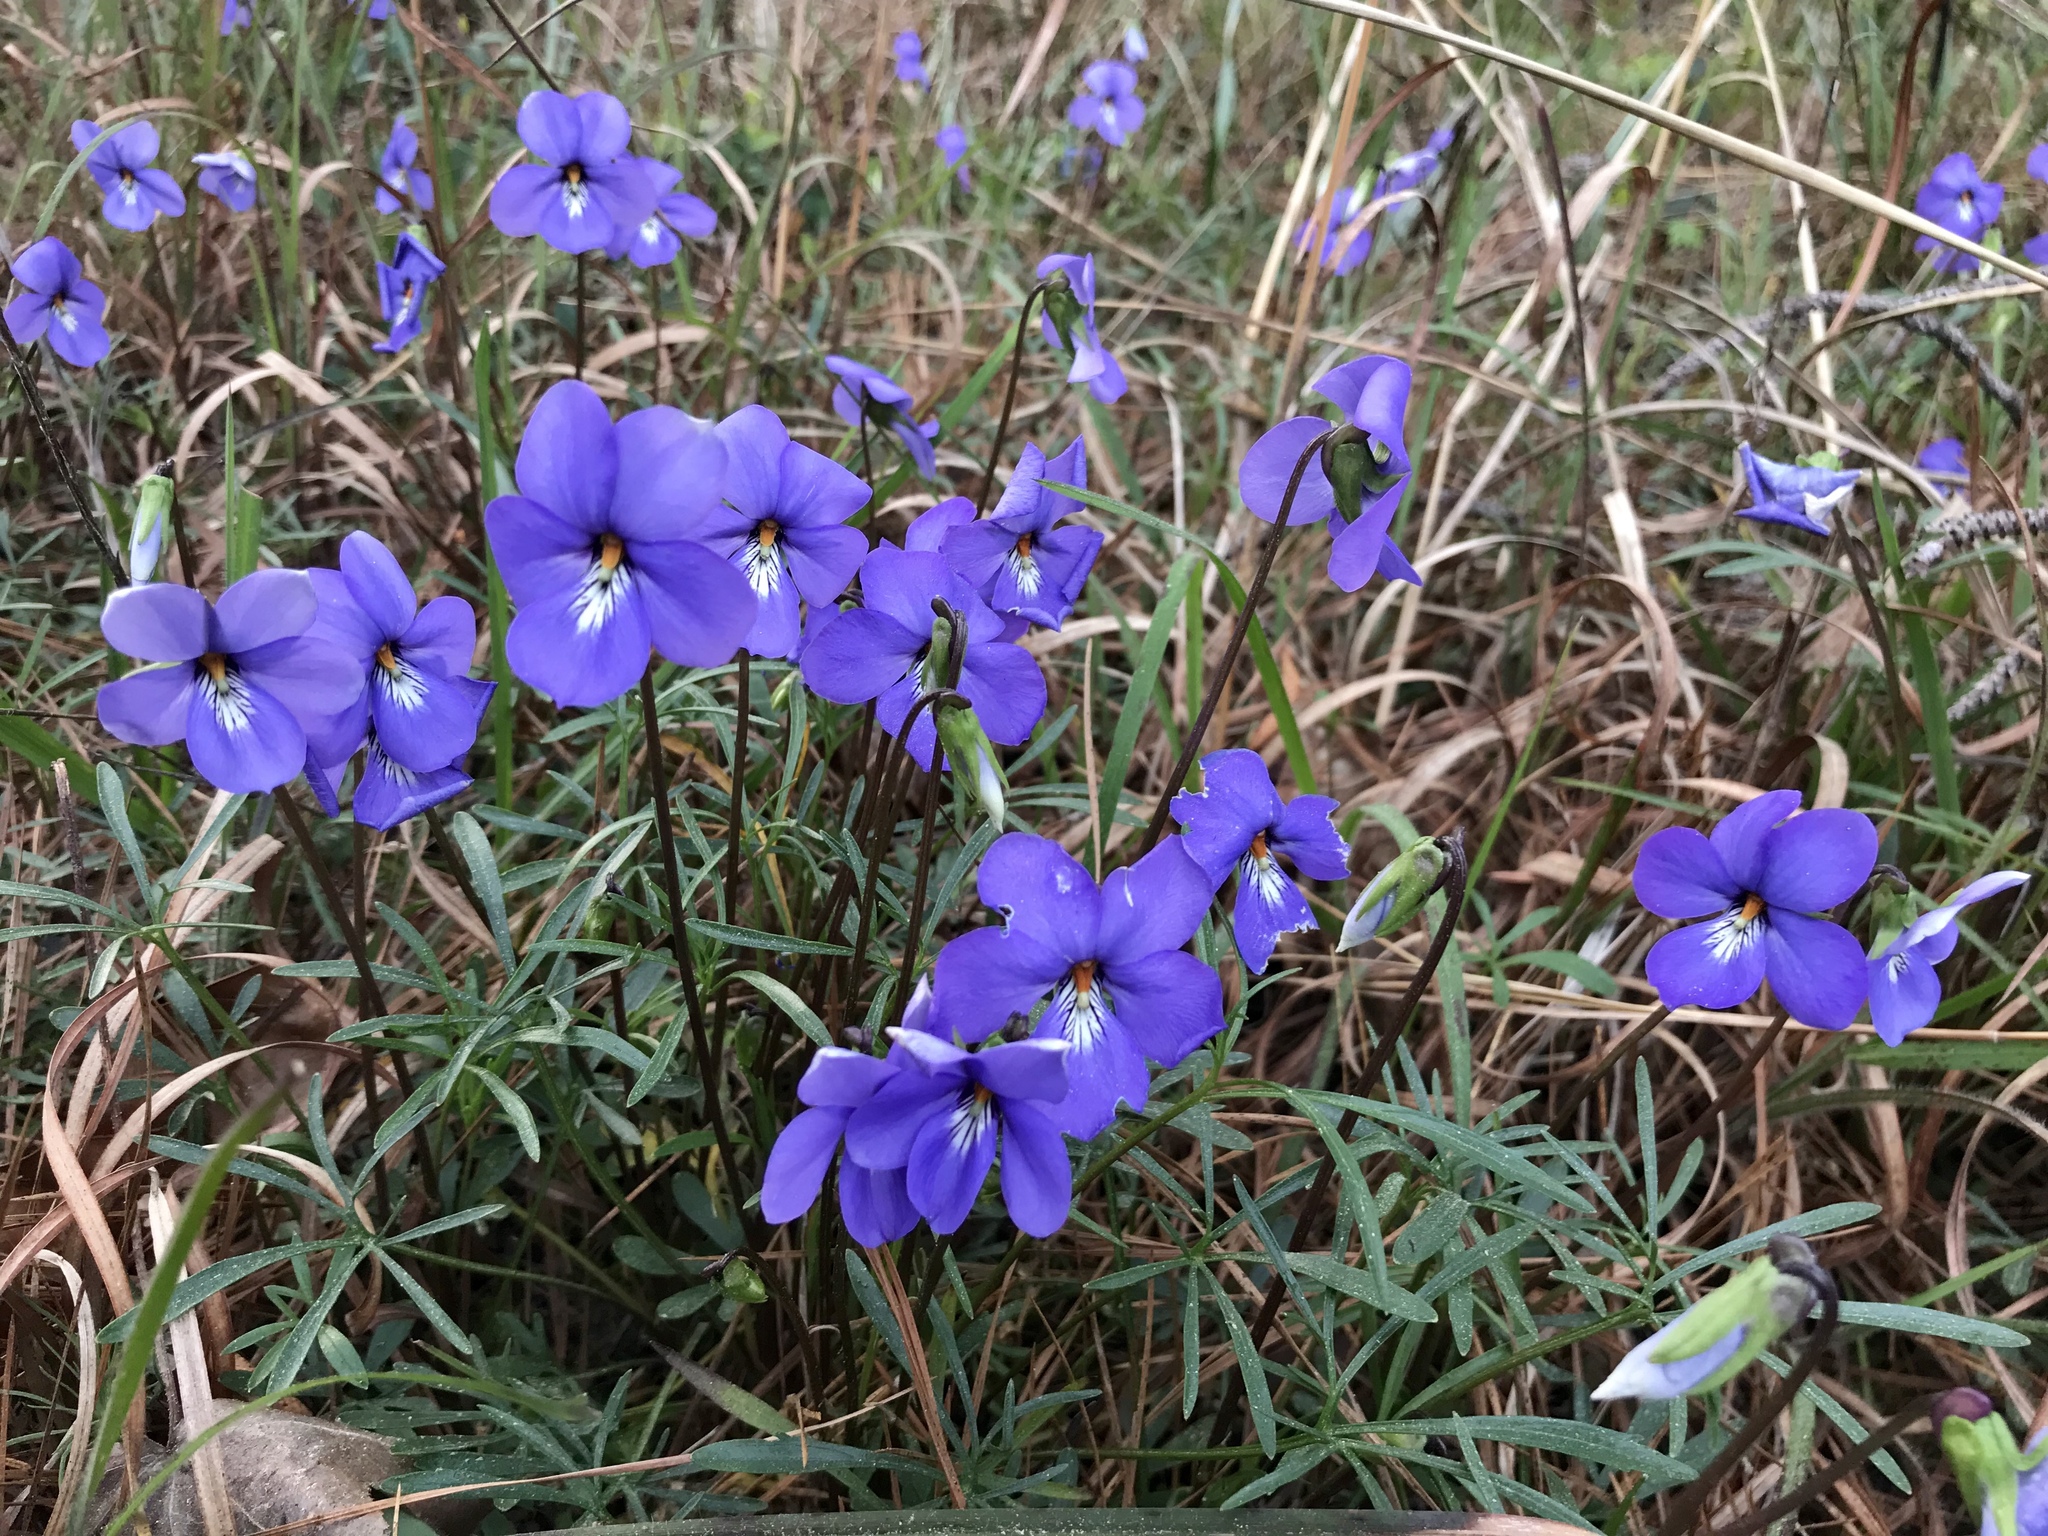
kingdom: Plantae
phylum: Tracheophyta
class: Magnoliopsida
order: Malpighiales
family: Violaceae
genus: Viola
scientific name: Viola pedata
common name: Pansy violet
